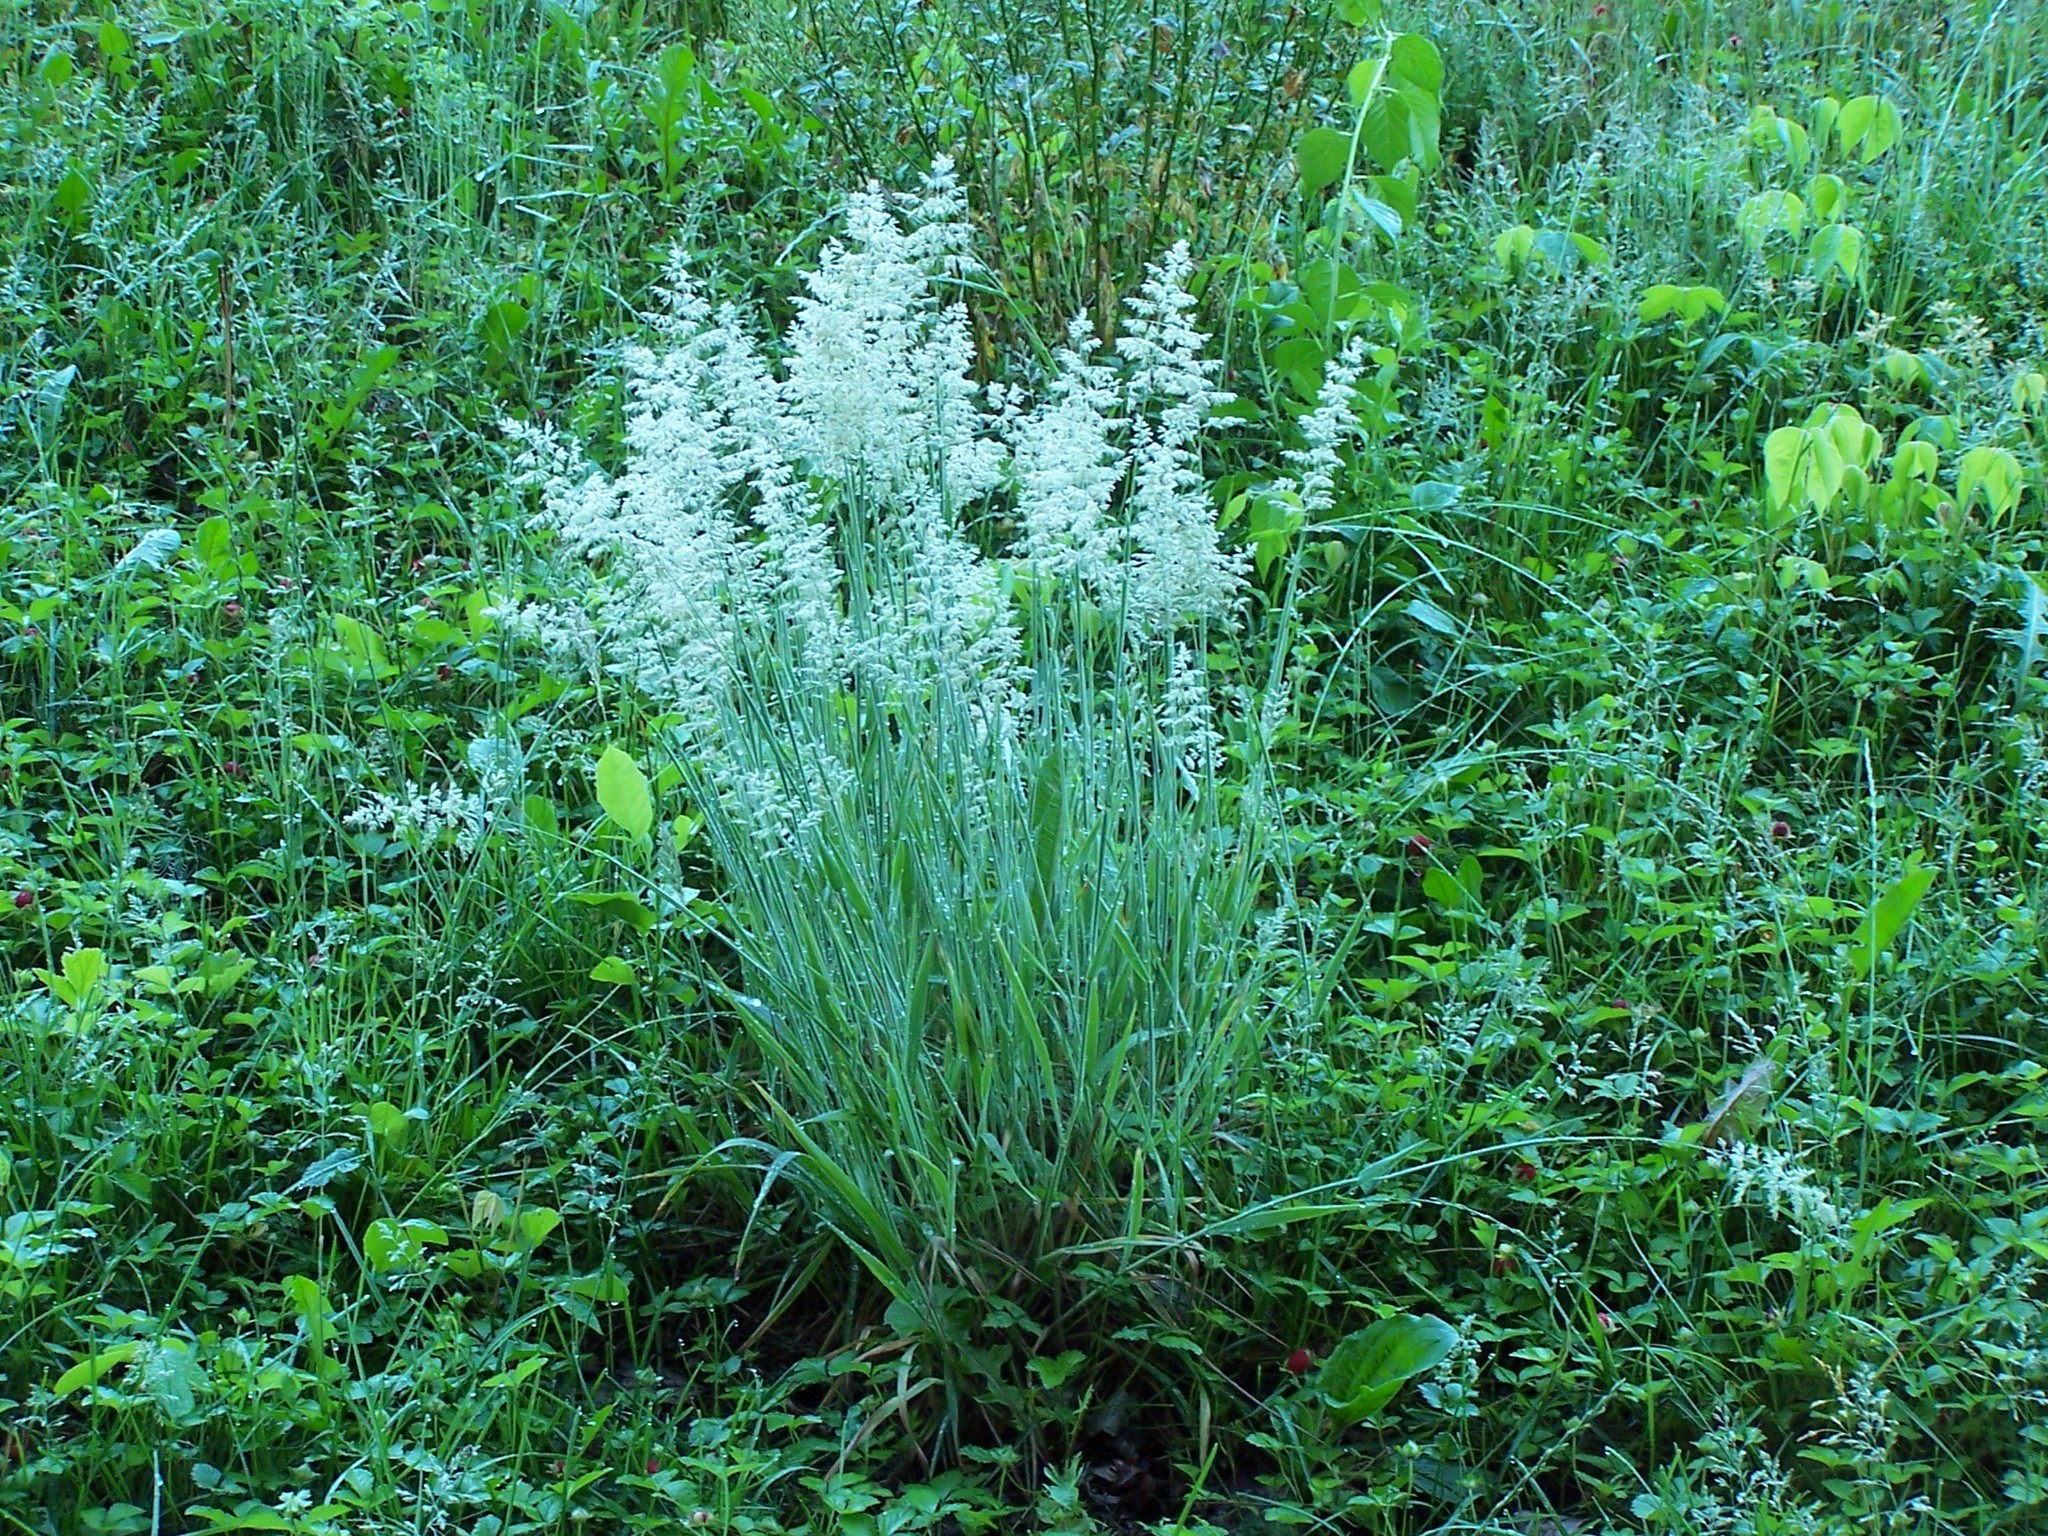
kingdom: Plantae
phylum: Tracheophyta
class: Liliopsida
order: Poales
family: Poaceae
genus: Holcus
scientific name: Holcus lanatus
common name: Yorkshire-fog
